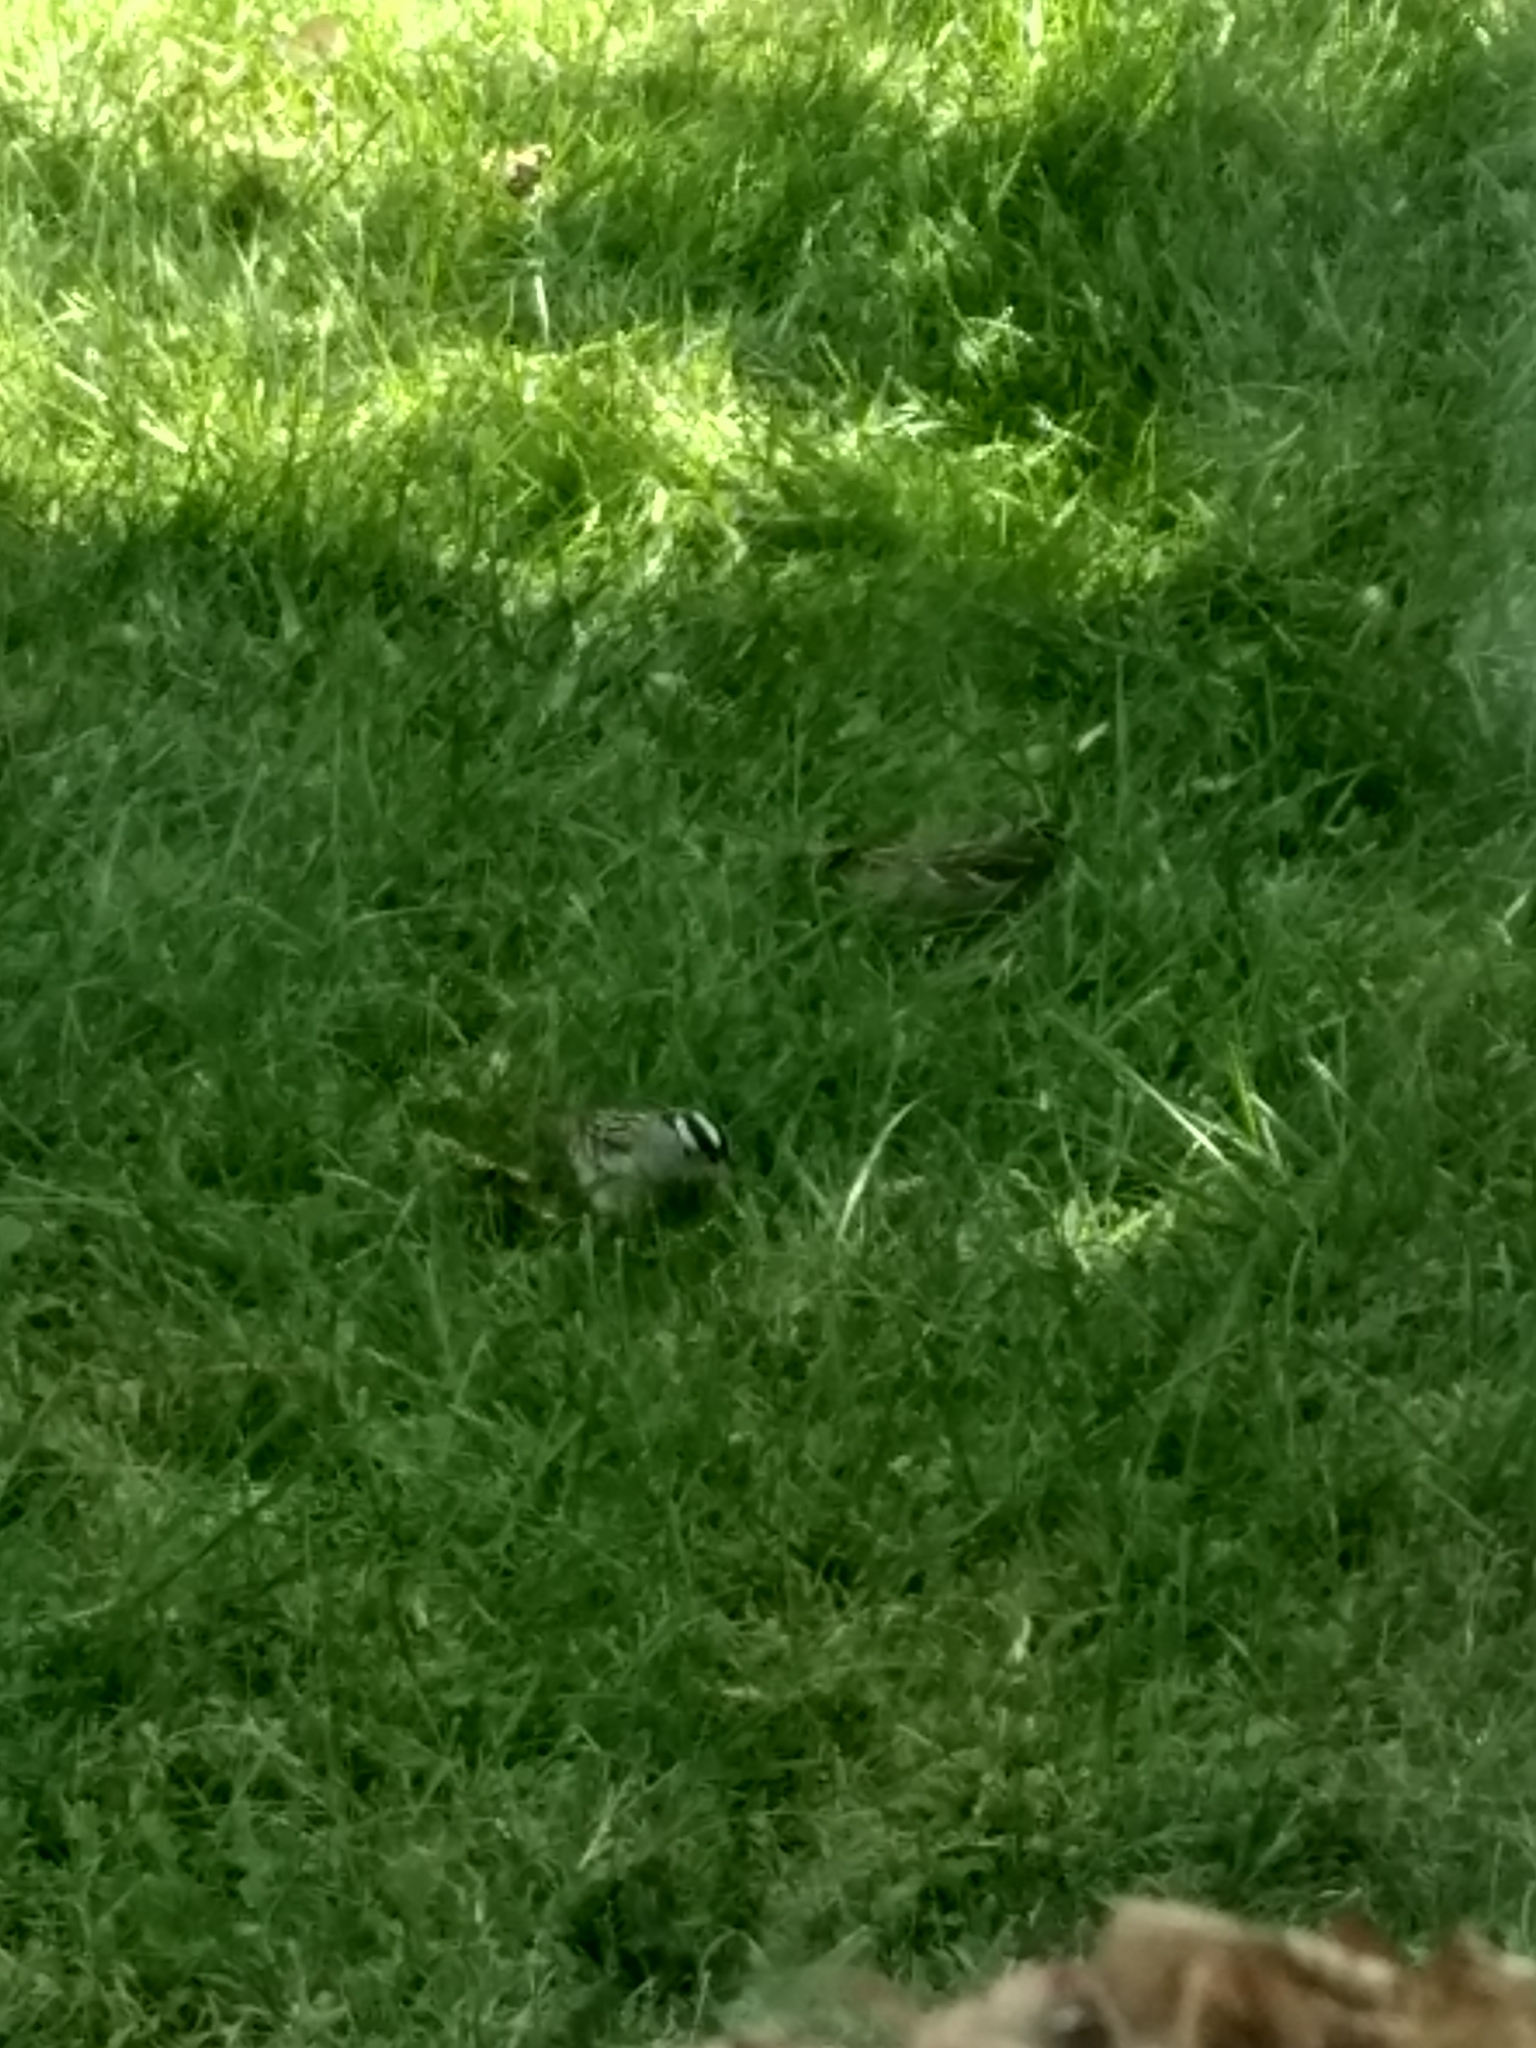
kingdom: Animalia
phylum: Chordata
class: Aves
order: Passeriformes
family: Passerellidae
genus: Zonotrichia
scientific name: Zonotrichia leucophrys
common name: White-crowned sparrow
